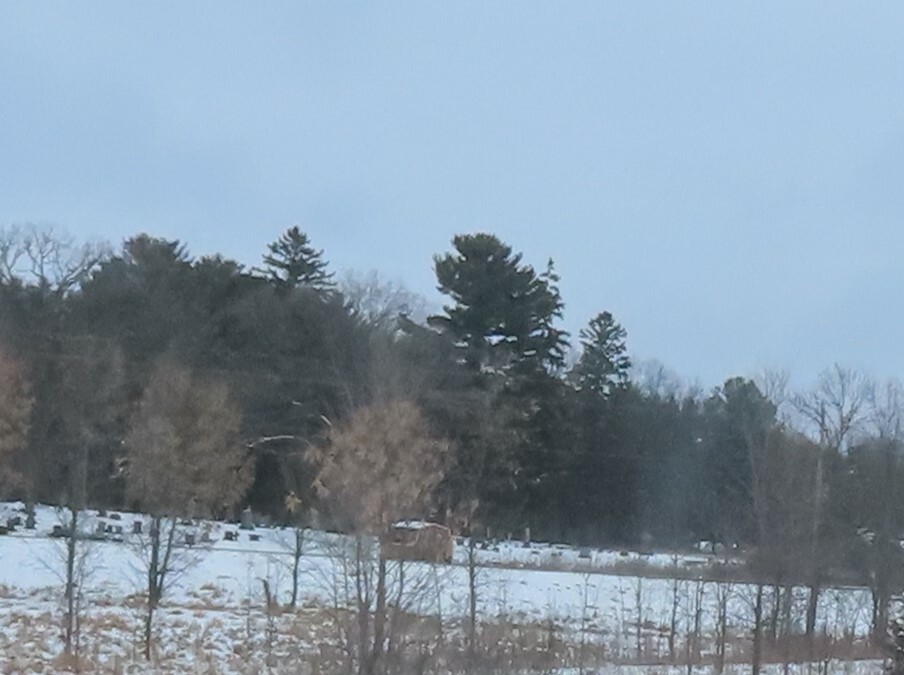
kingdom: Plantae
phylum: Tracheophyta
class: Pinopsida
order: Pinales
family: Pinaceae
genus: Pinus
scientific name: Pinus strobus
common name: Weymouth pine
